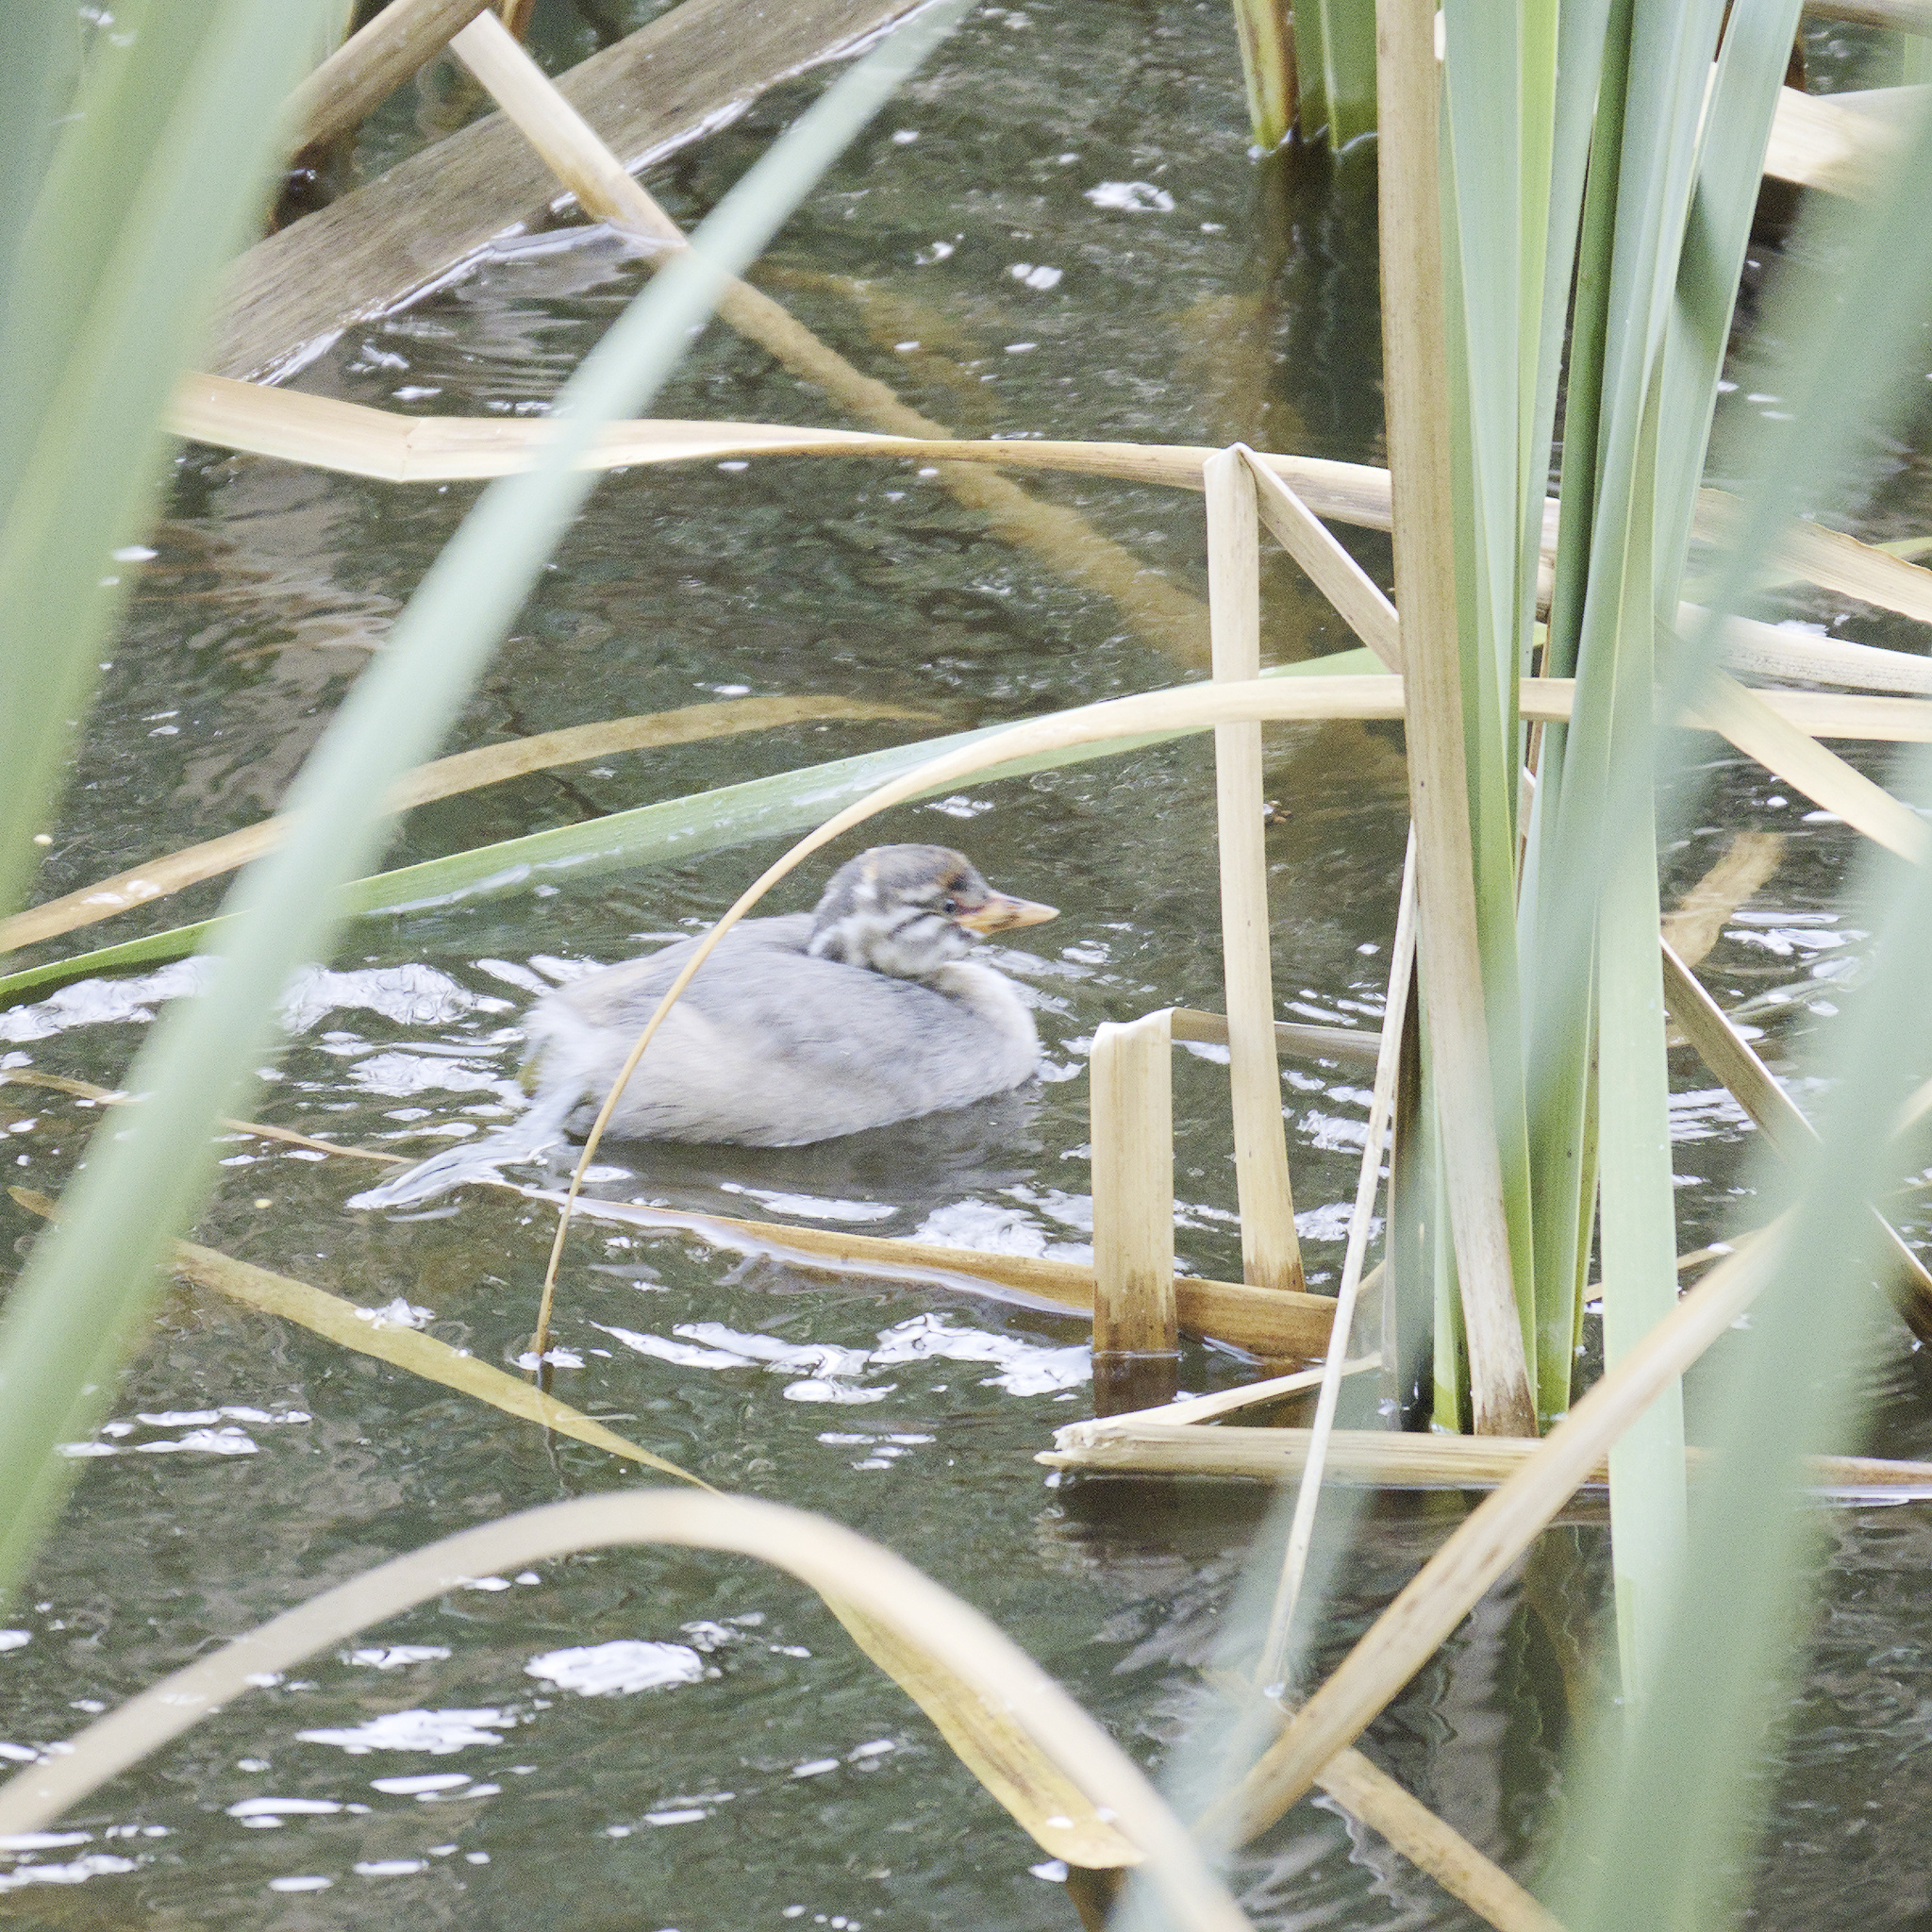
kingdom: Animalia
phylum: Chordata
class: Aves
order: Podicipediformes
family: Podicipedidae
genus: Tachybaptus
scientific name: Tachybaptus novaehollandiae
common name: Australasian grebe
